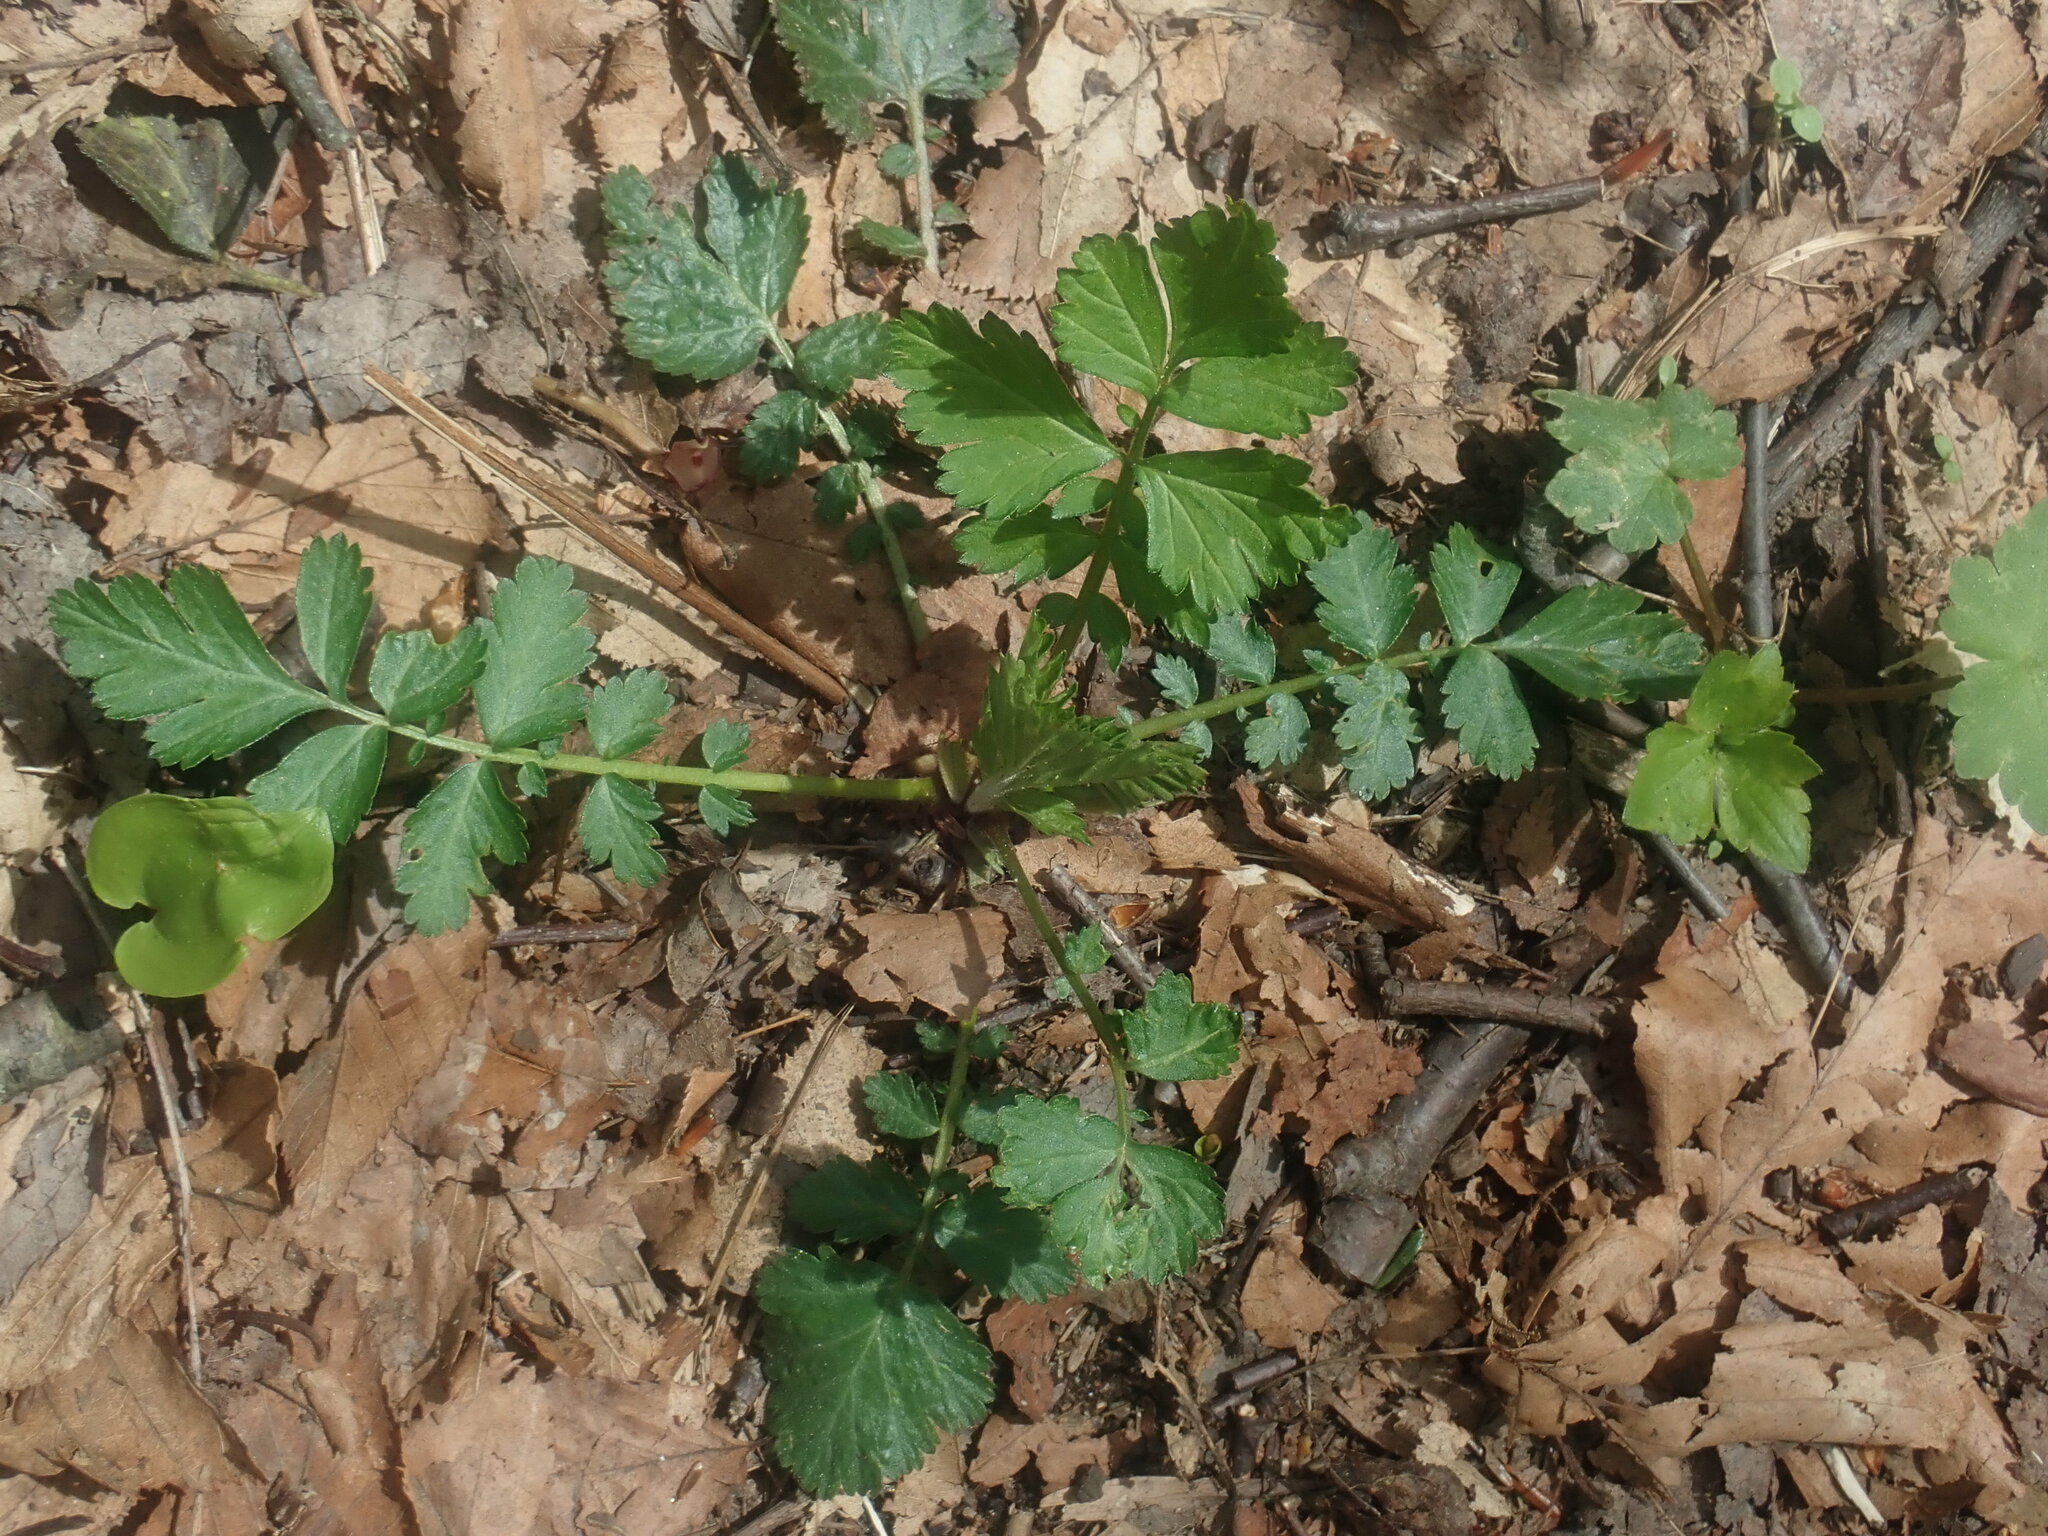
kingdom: Plantae
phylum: Tracheophyta
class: Magnoliopsida
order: Rosales
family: Rosaceae
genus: Geum
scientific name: Geum
